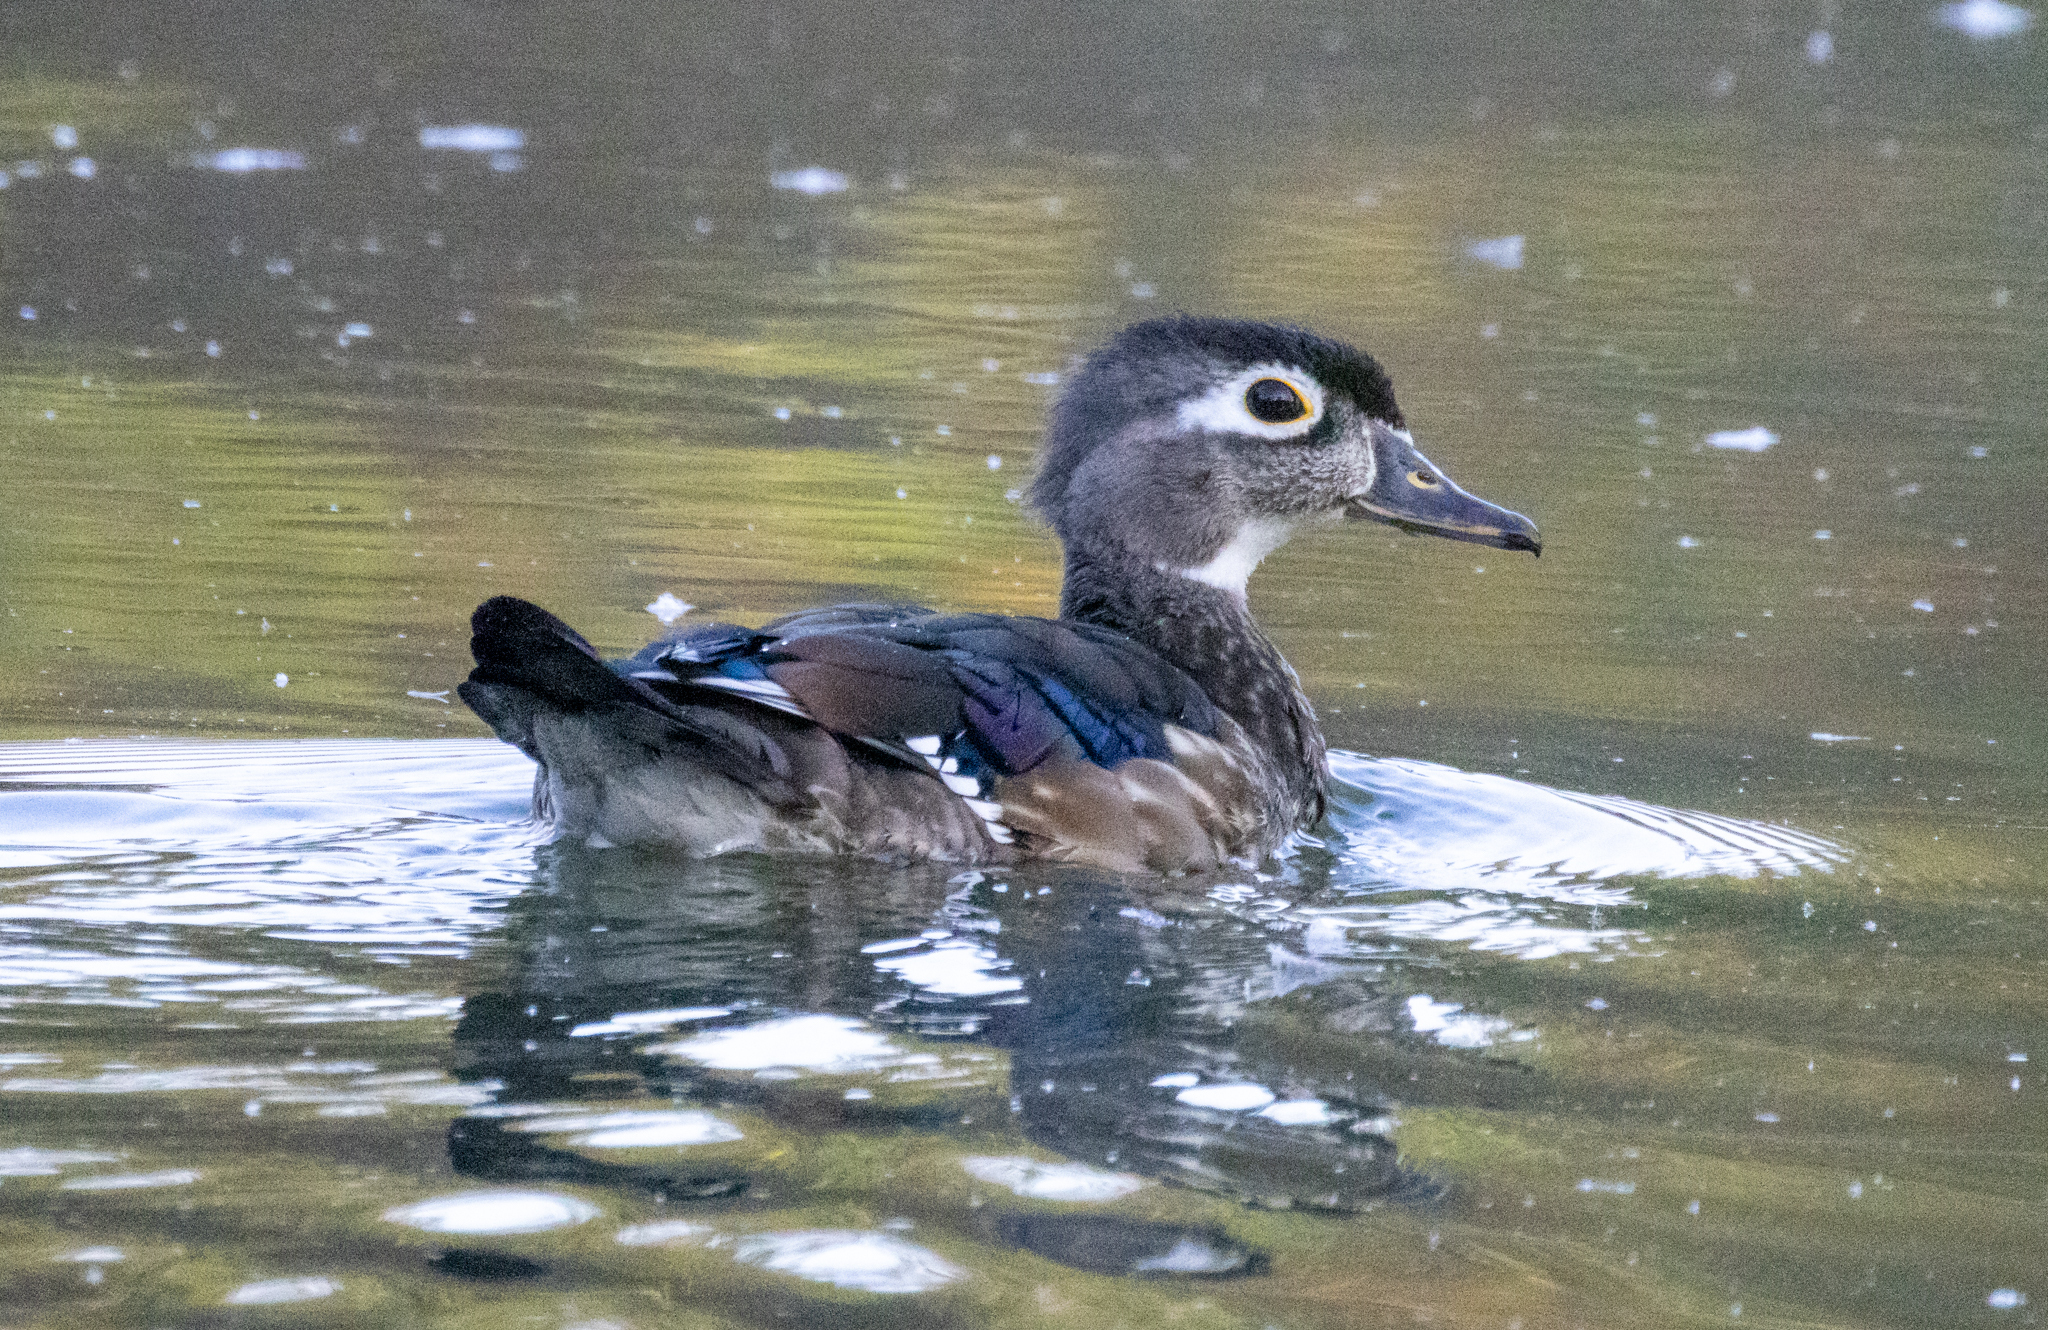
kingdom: Animalia
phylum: Chordata
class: Aves
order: Anseriformes
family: Anatidae
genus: Aix
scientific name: Aix sponsa
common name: Wood duck
